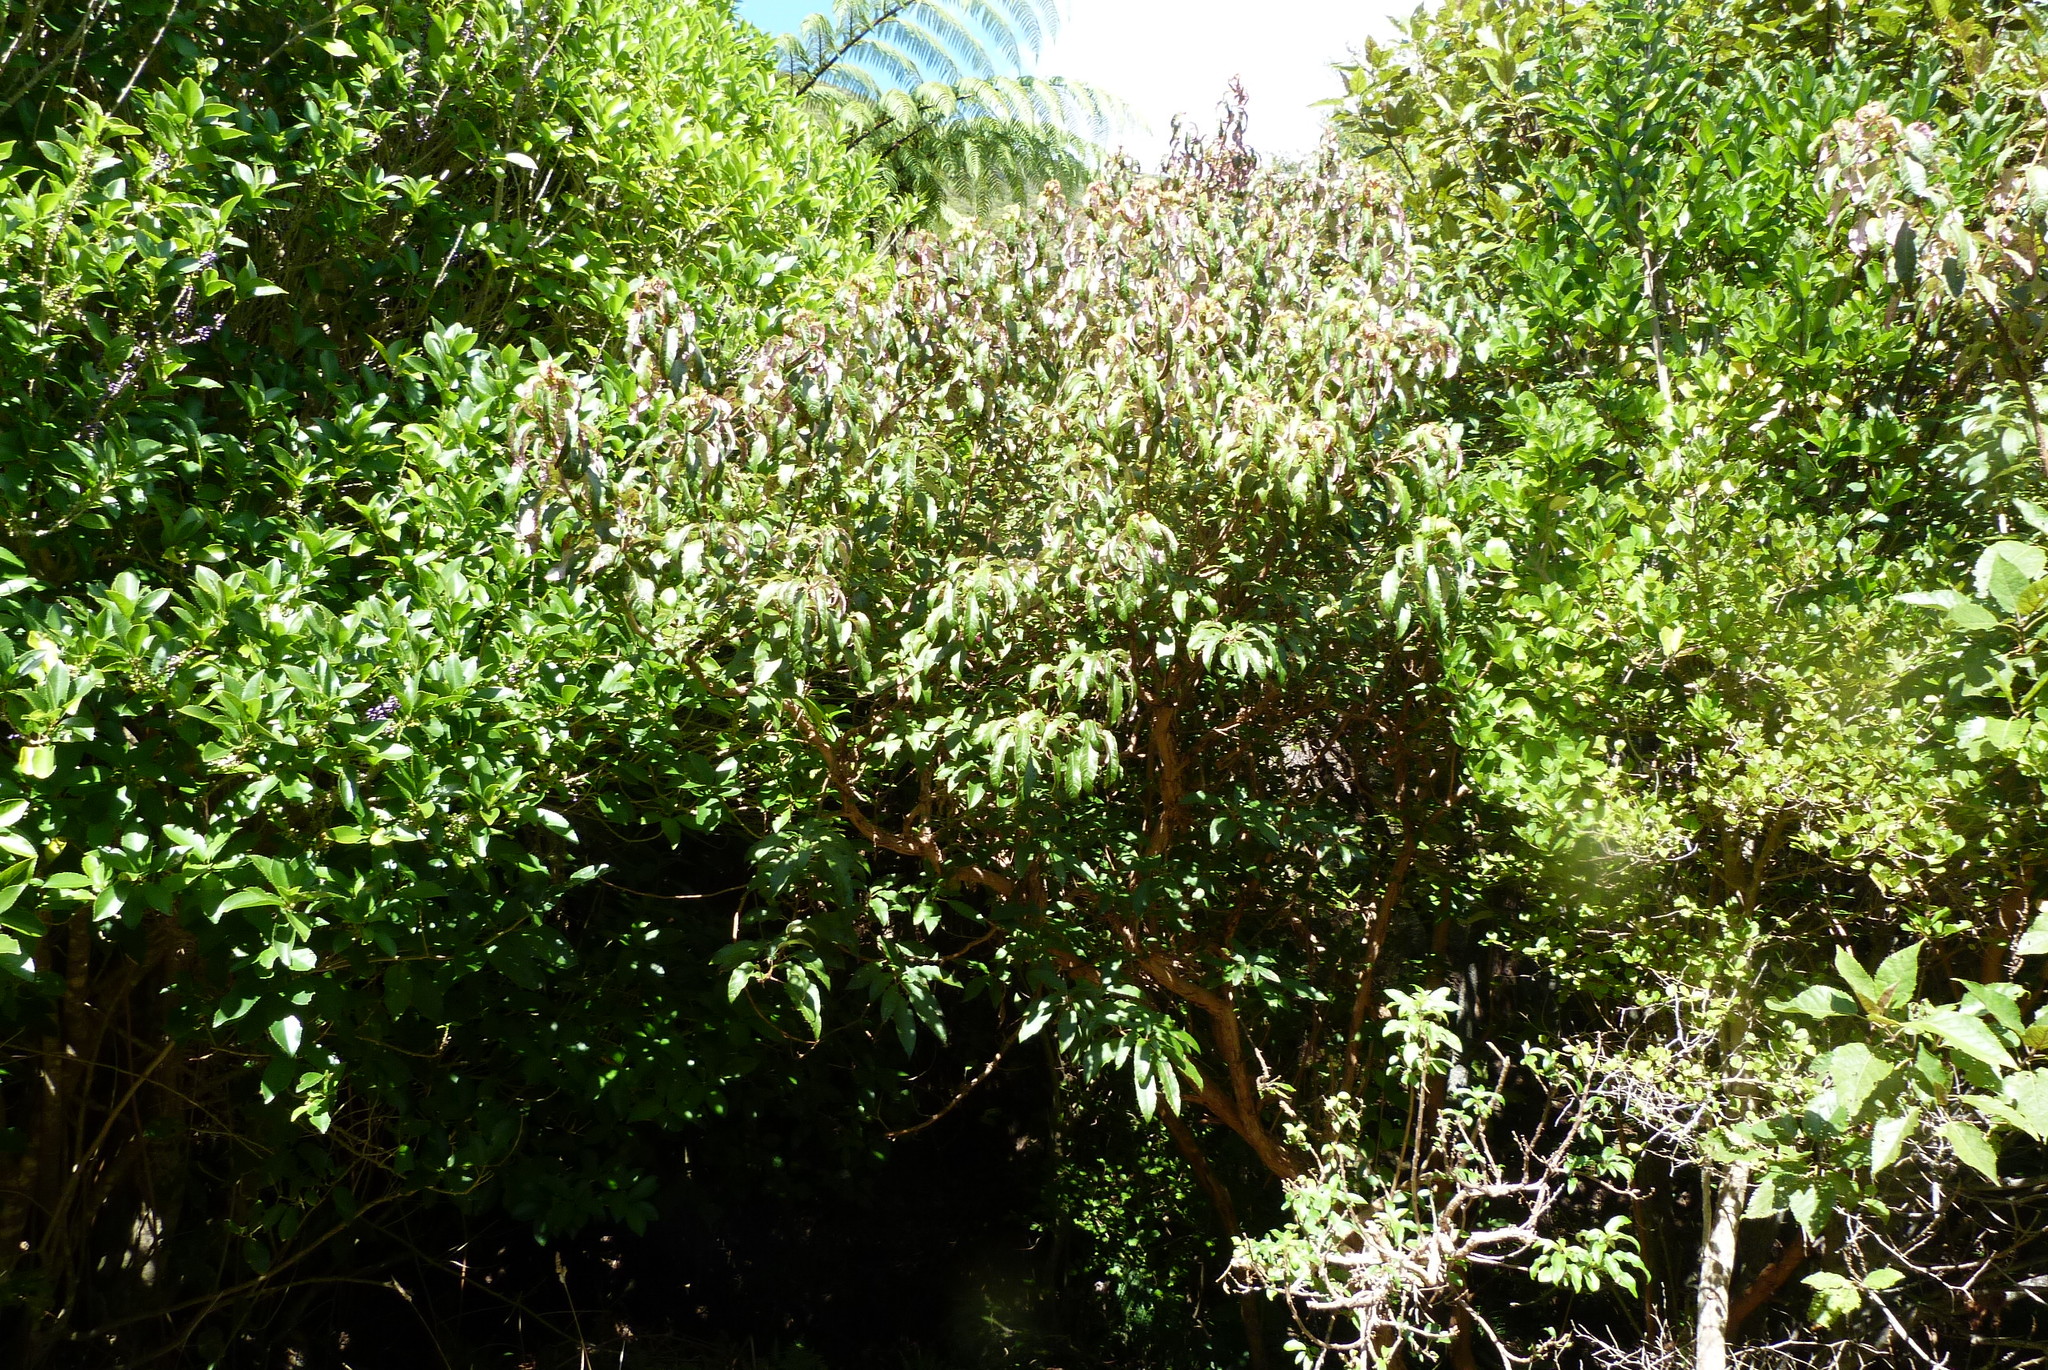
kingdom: Plantae
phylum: Tracheophyta
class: Magnoliopsida
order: Myrtales
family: Onagraceae
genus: Fuchsia
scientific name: Fuchsia excorticata
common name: Tree fuchsia
